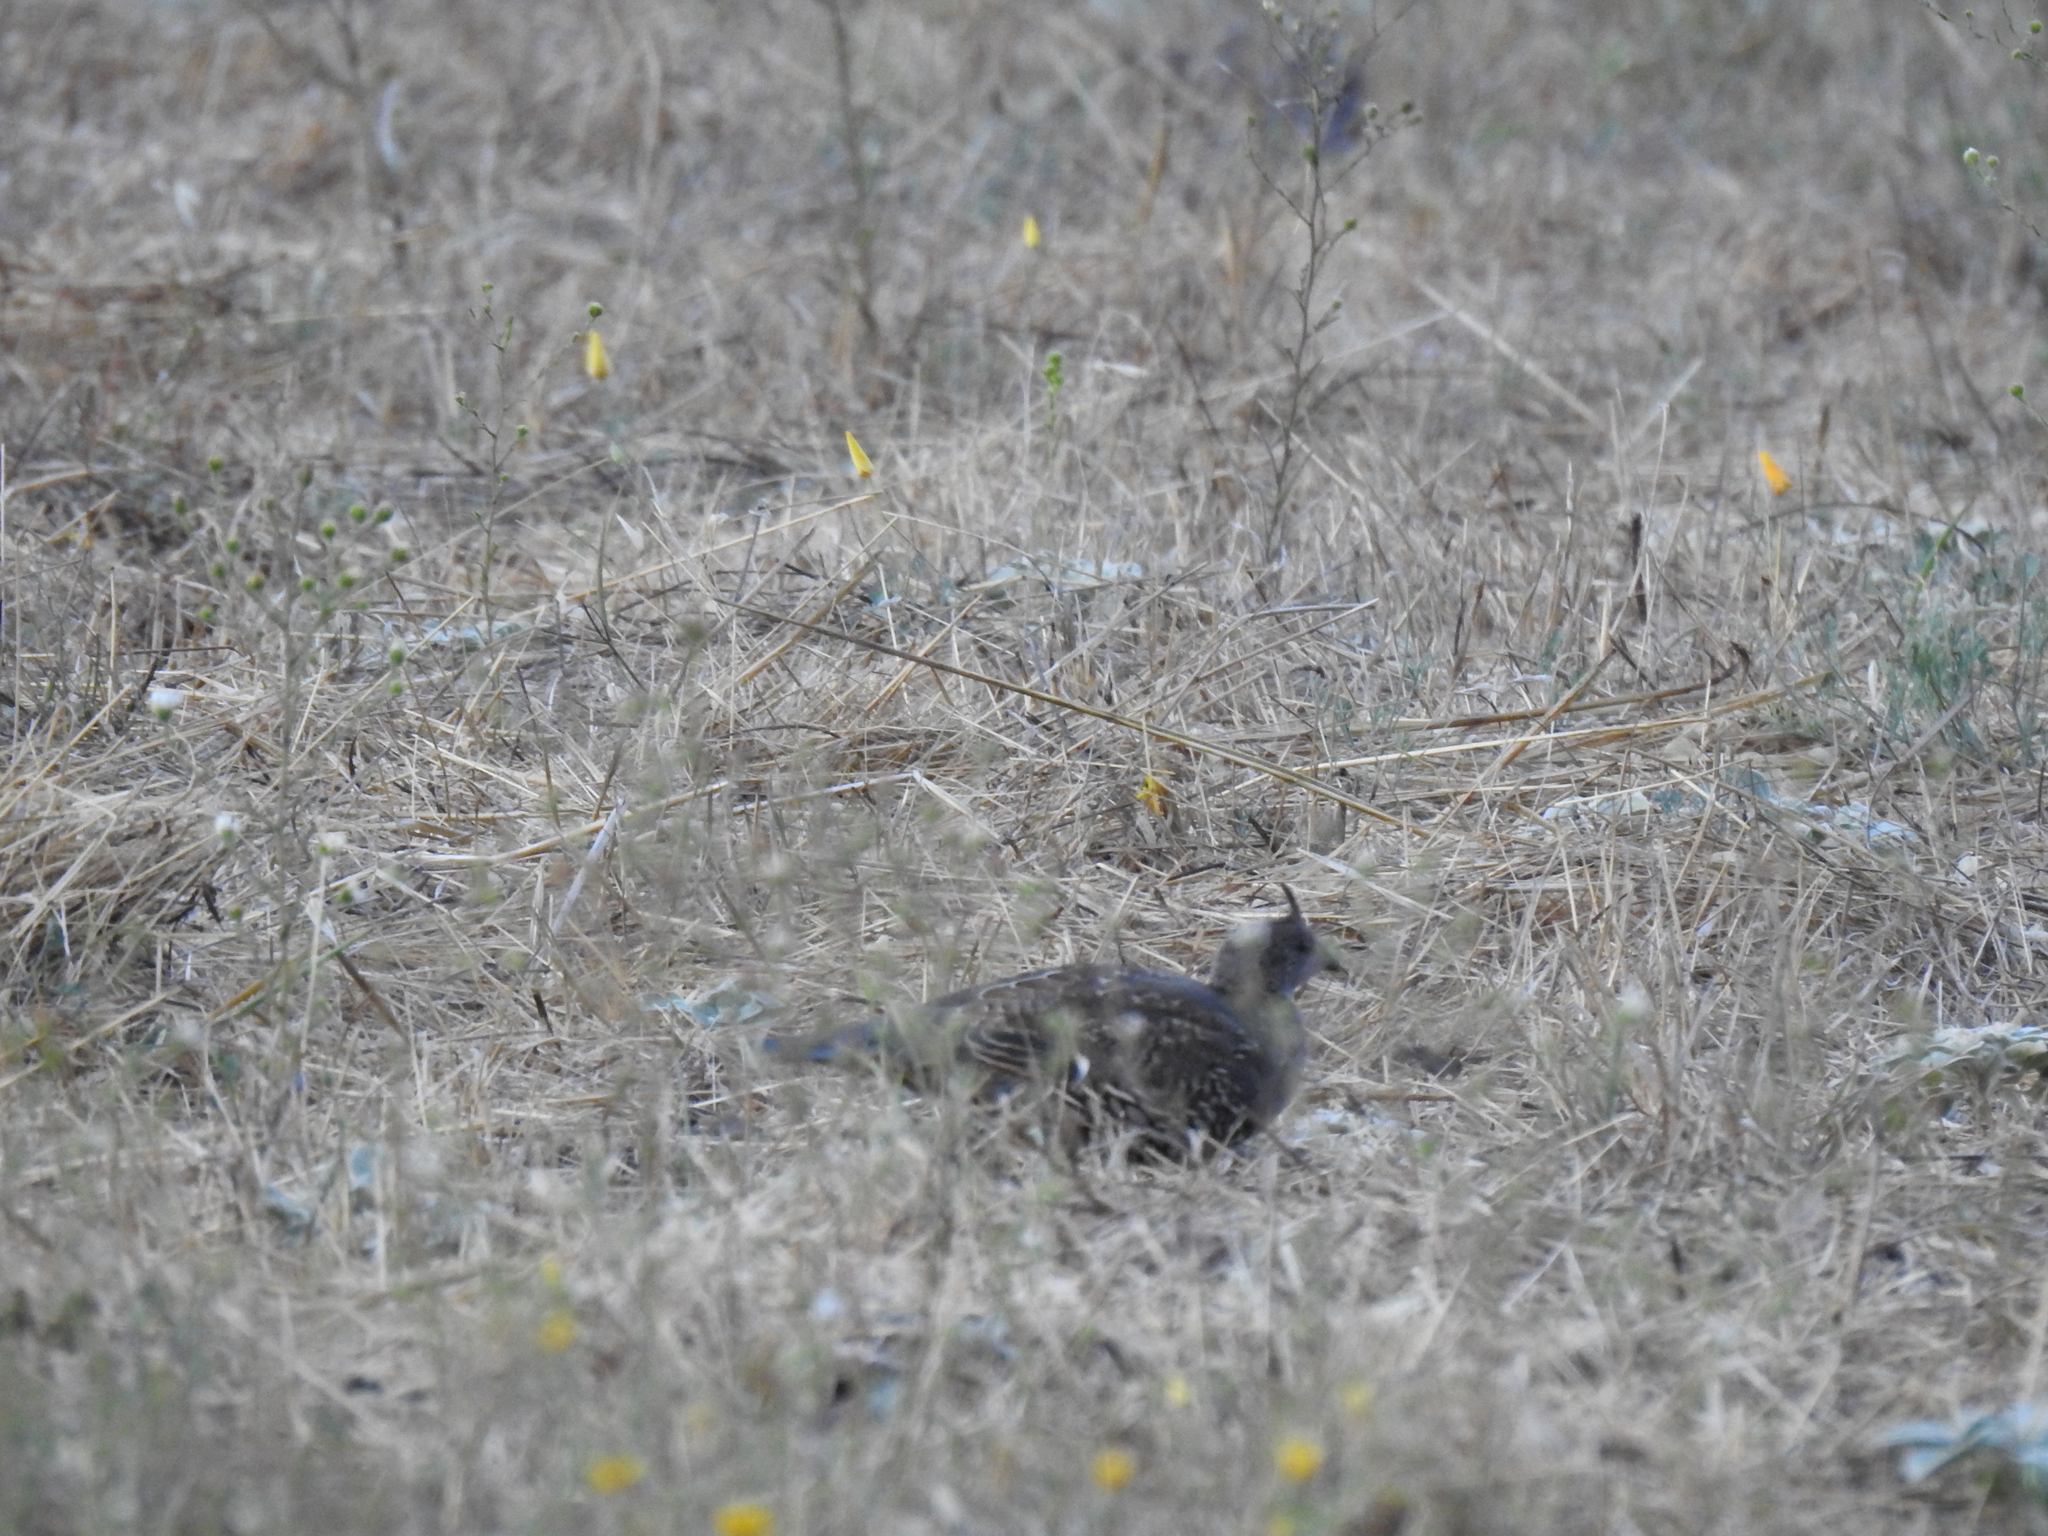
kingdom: Animalia
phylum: Chordata
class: Aves
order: Galliformes
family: Odontophoridae
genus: Callipepla
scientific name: Callipepla californica
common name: California quail
